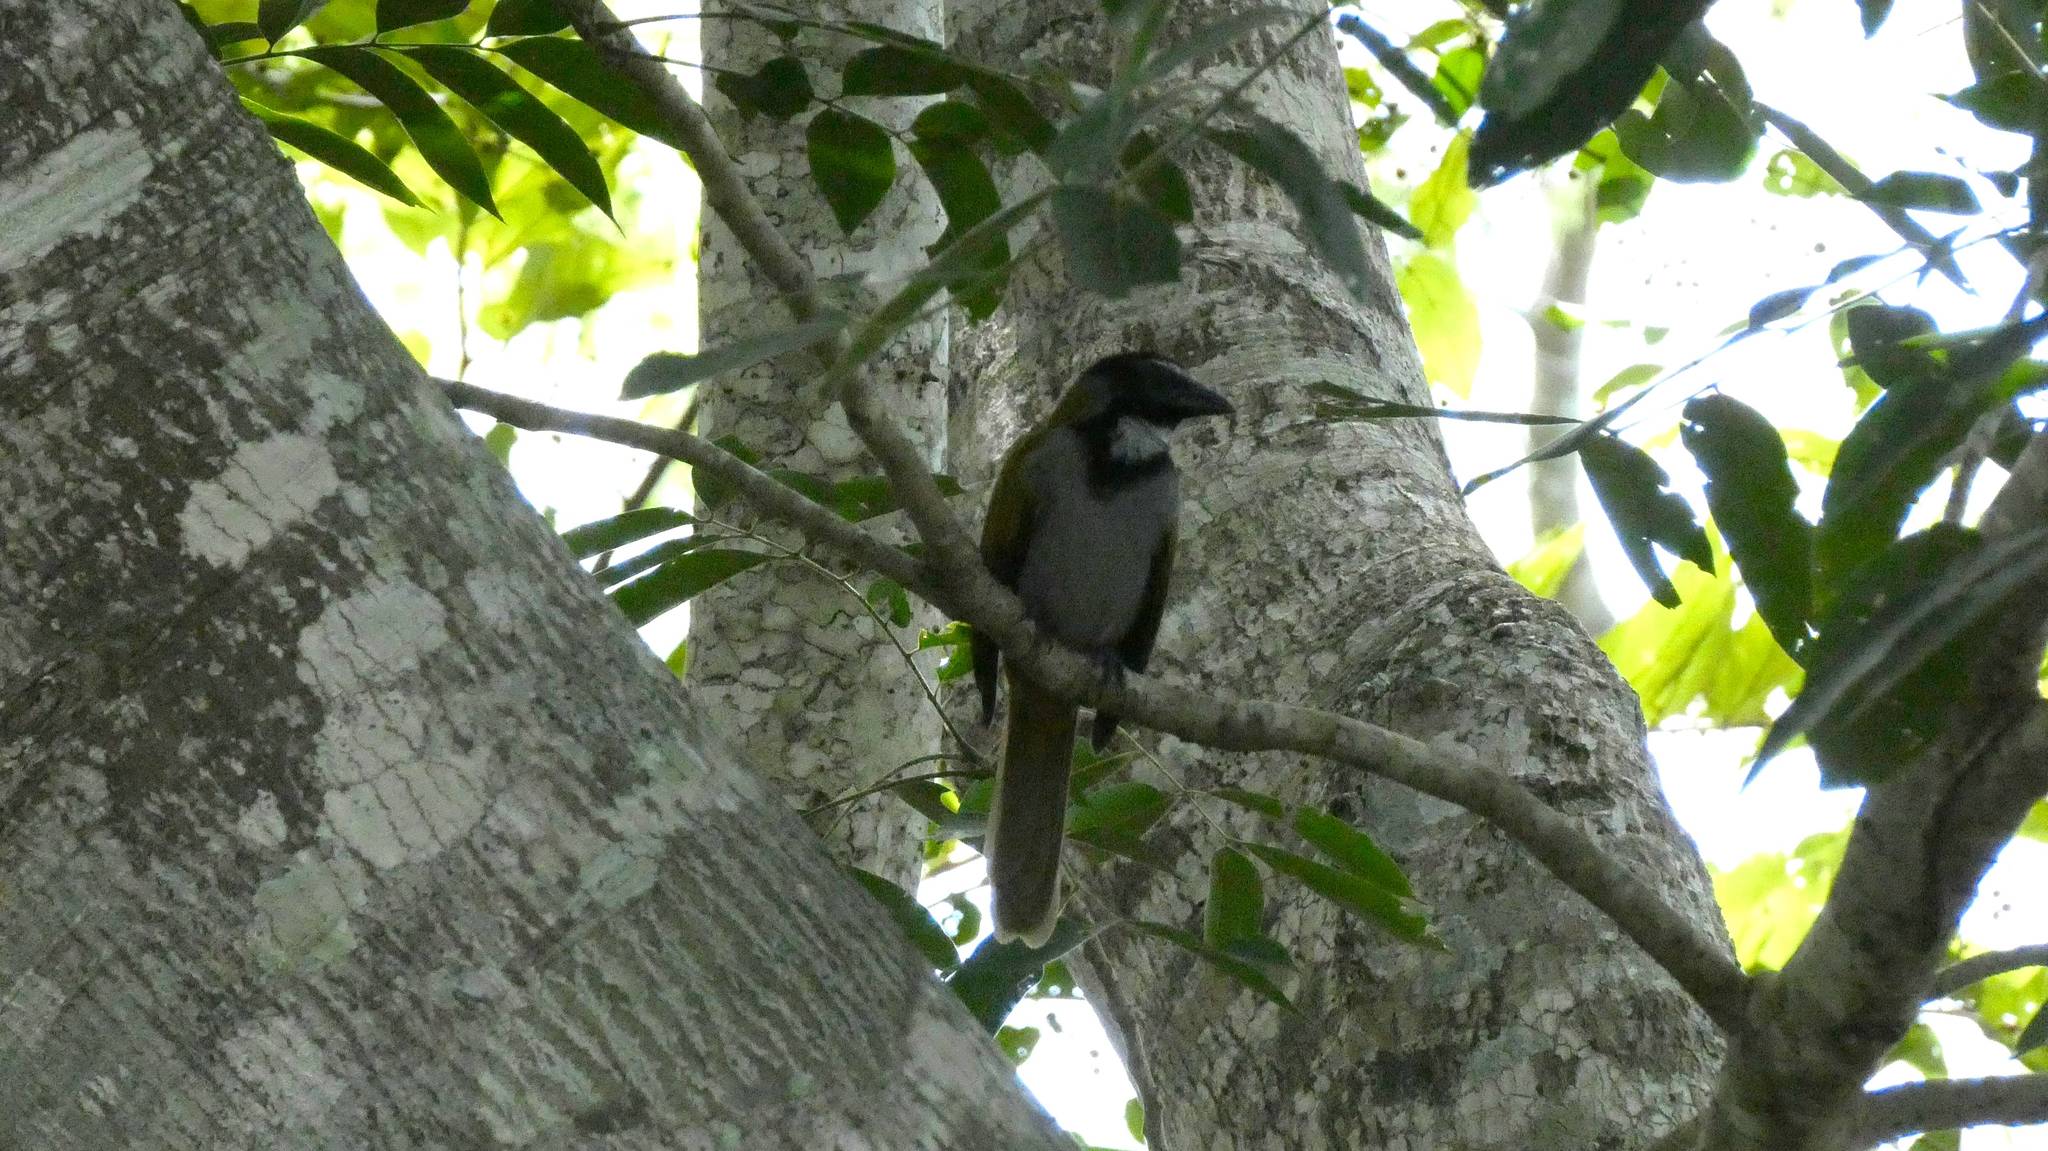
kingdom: Animalia
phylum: Chordata
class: Aves
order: Passeriformes
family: Thraupidae
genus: Saltator
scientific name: Saltator atriceps
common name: Black-headed saltator
